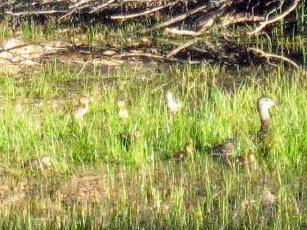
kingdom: Animalia
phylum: Chordata
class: Aves
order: Anseriformes
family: Anatidae
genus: Anas
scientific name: Anas platyrhynchos
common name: Mallard
